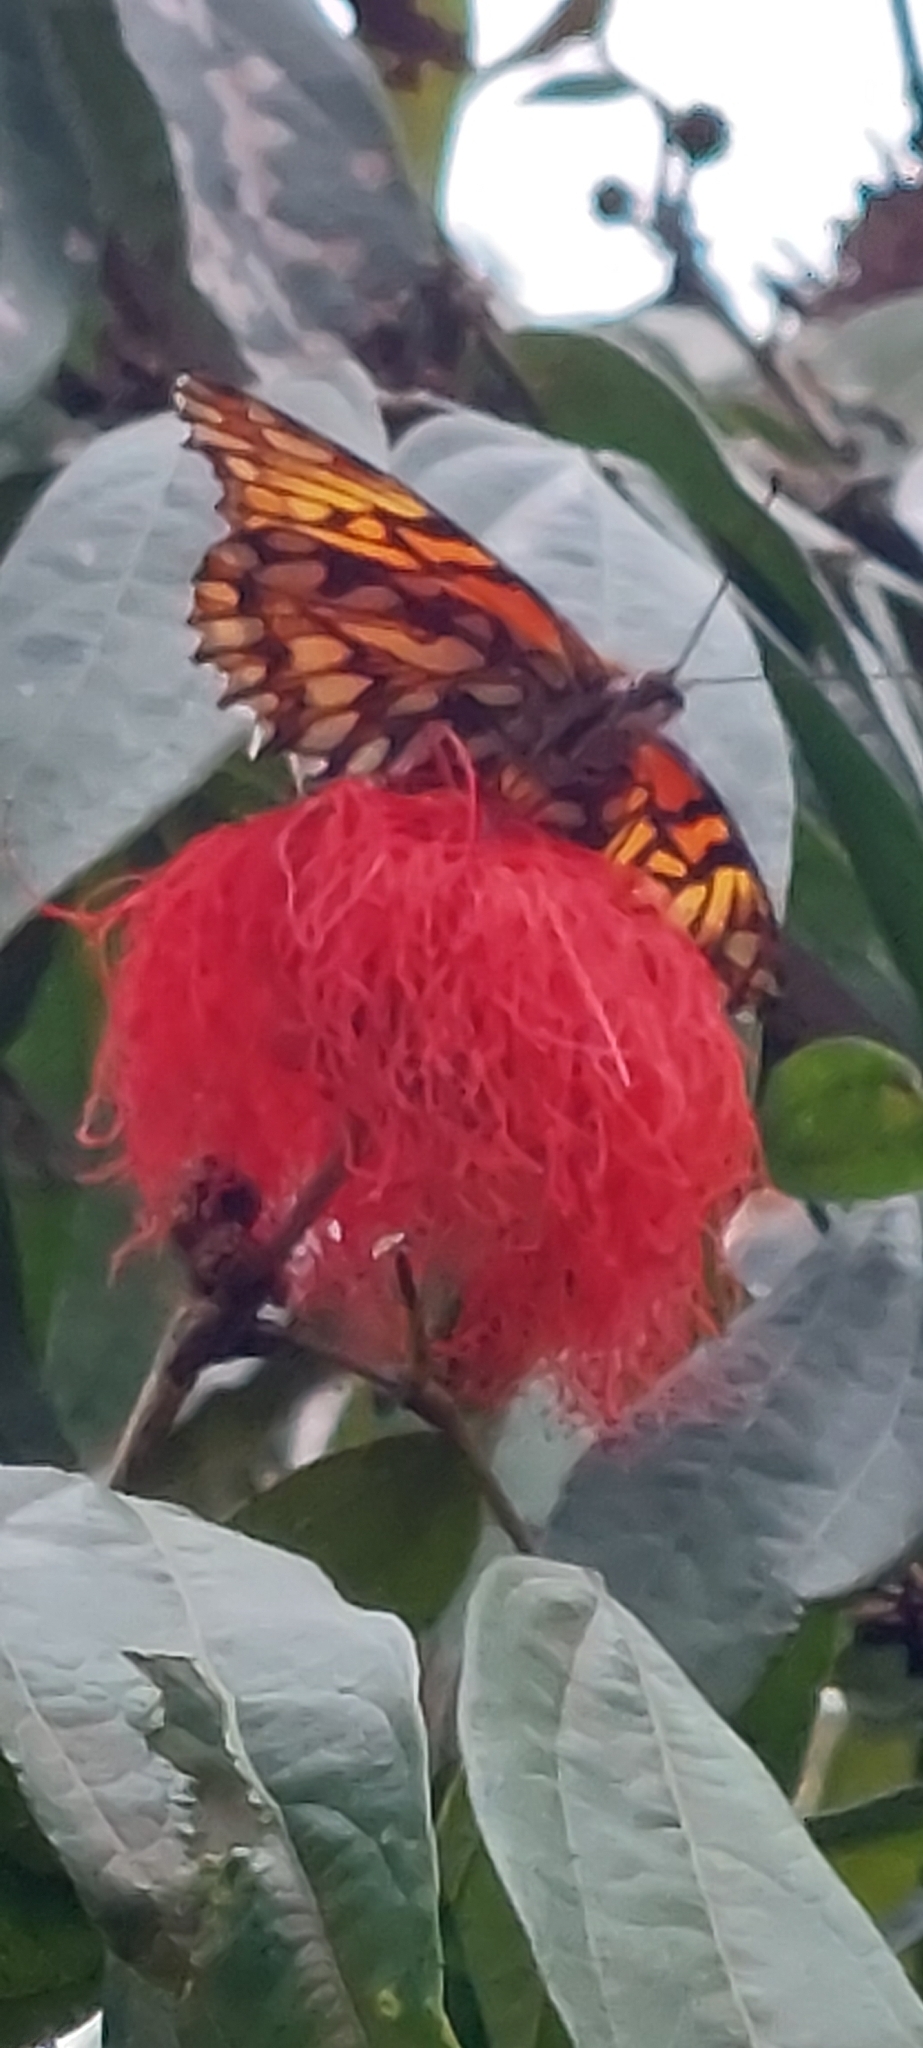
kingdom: Animalia
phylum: Arthropoda
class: Insecta
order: Lepidoptera
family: Nymphalidae
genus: Dione
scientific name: Dione glycera
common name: Andean silverspot
